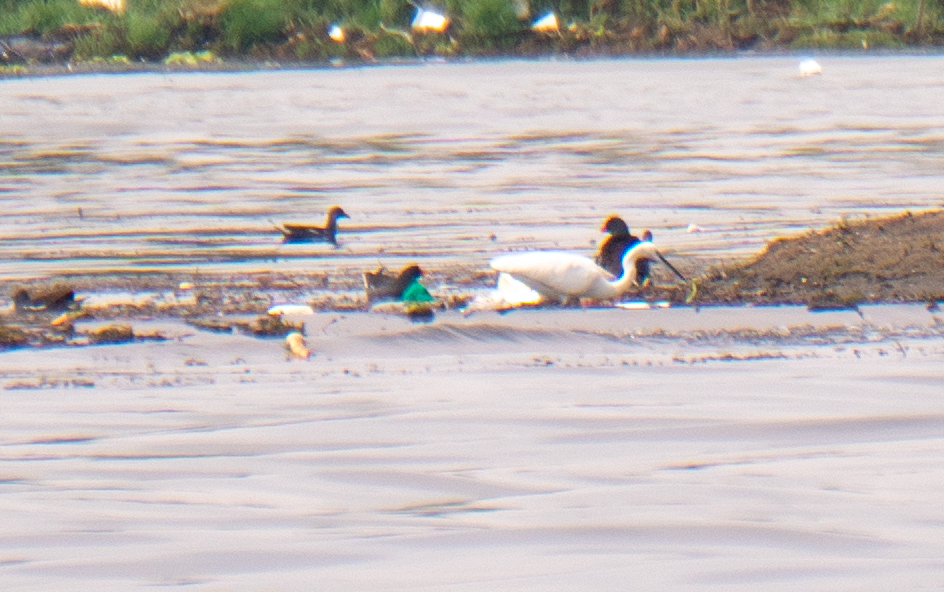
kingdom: Animalia
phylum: Chordata
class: Aves
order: Pelecaniformes
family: Ardeidae
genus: Egretta
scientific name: Egretta garzetta
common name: Little egret
